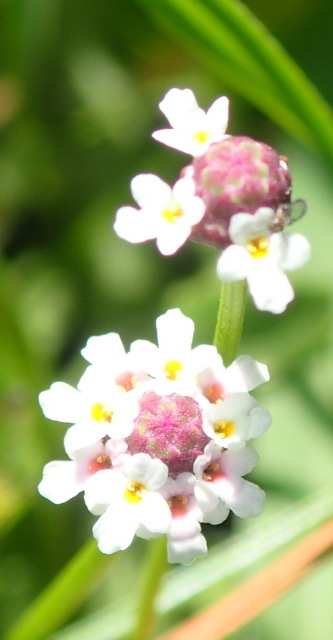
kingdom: Plantae
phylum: Tracheophyta
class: Magnoliopsida
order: Lamiales
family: Verbenaceae
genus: Phyla
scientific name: Phyla nodiflora
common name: Frogfruit
